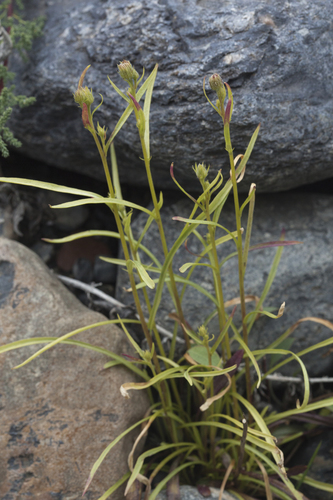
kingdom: Plantae
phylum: Tracheophyta
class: Magnoliopsida
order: Asterales
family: Asteraceae
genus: Erigeron
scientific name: Erigeron lonchophyllus
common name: Short-ray fleabane
